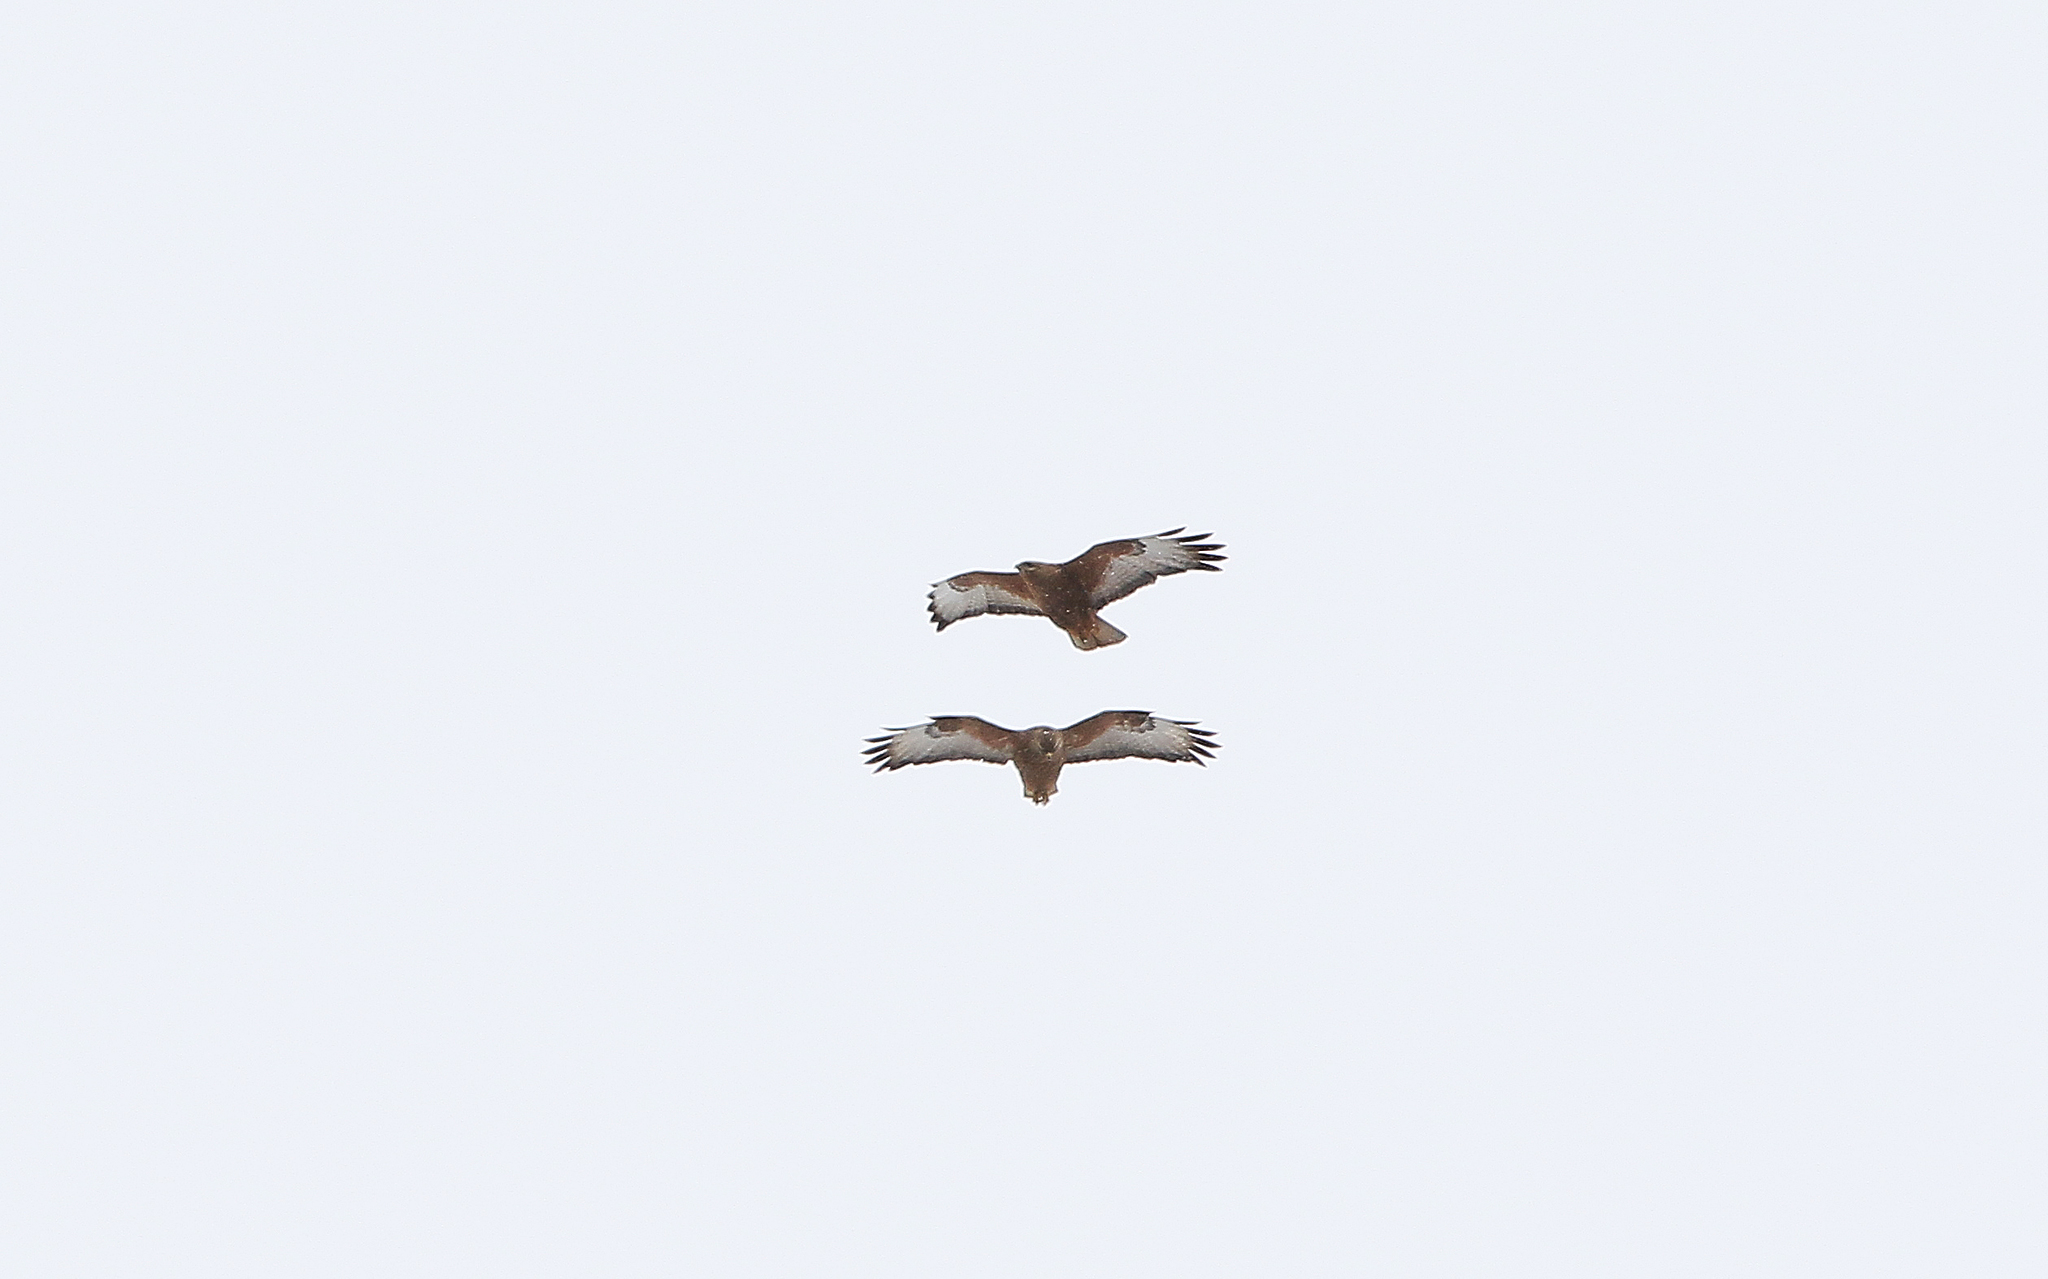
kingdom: Animalia
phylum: Chordata
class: Aves
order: Accipitriformes
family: Accipitridae
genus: Buteo
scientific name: Buteo buteo
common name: Common buzzard
